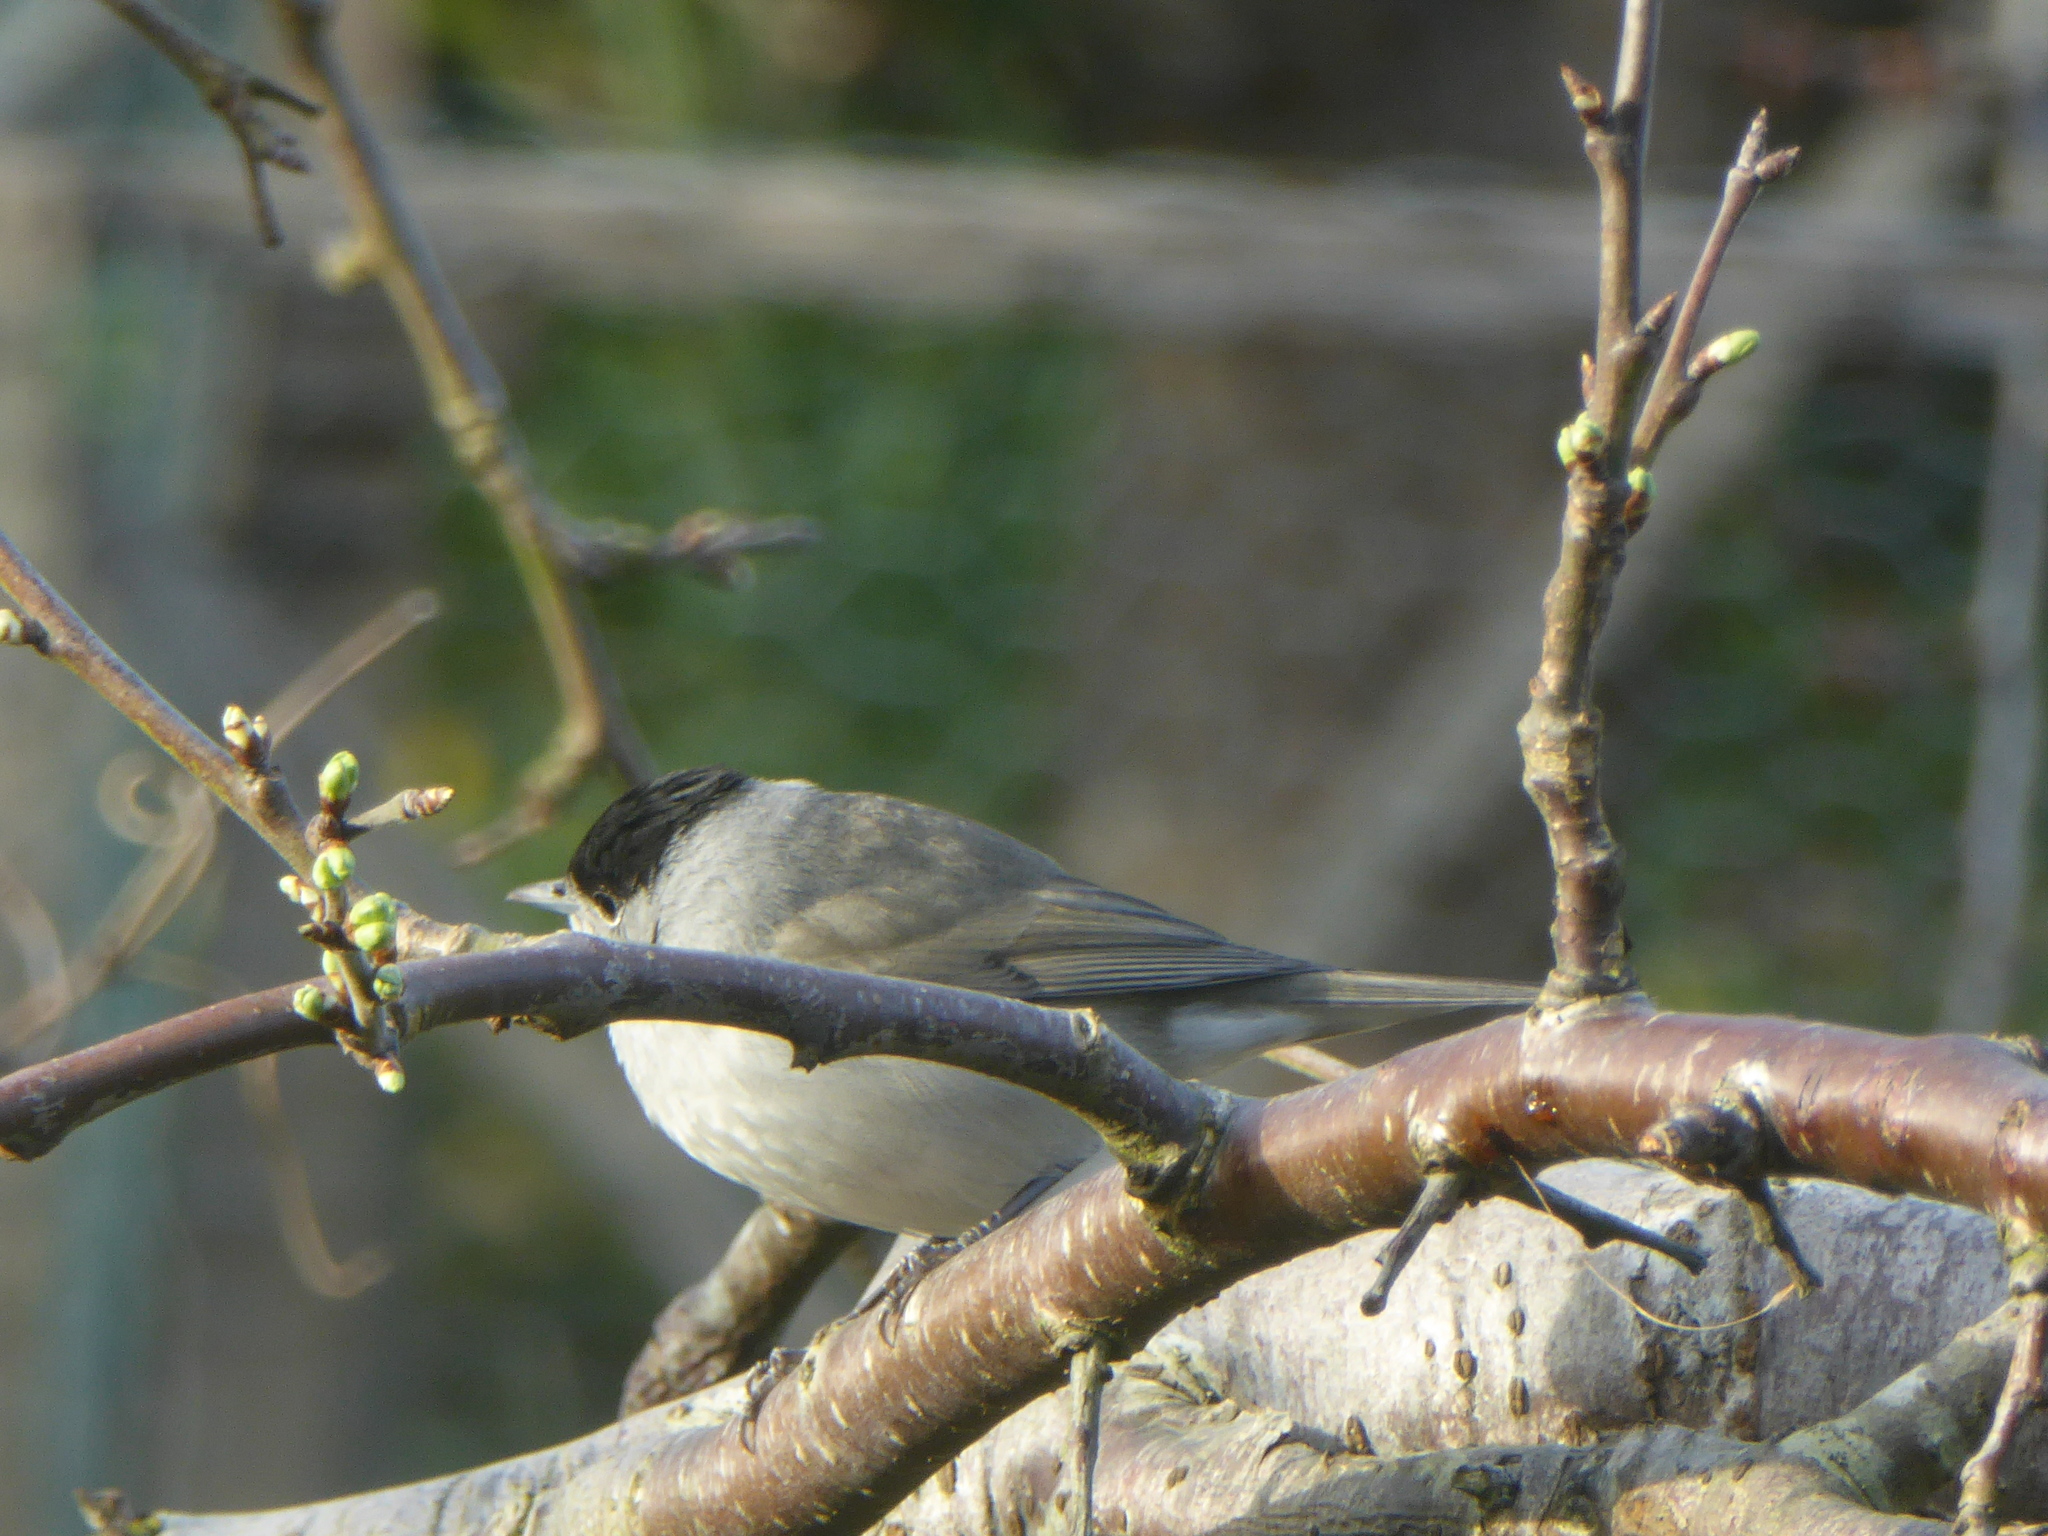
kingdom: Animalia
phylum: Chordata
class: Aves
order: Passeriformes
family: Sylviidae
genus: Sylvia
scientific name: Sylvia atricapilla
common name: Eurasian blackcap
